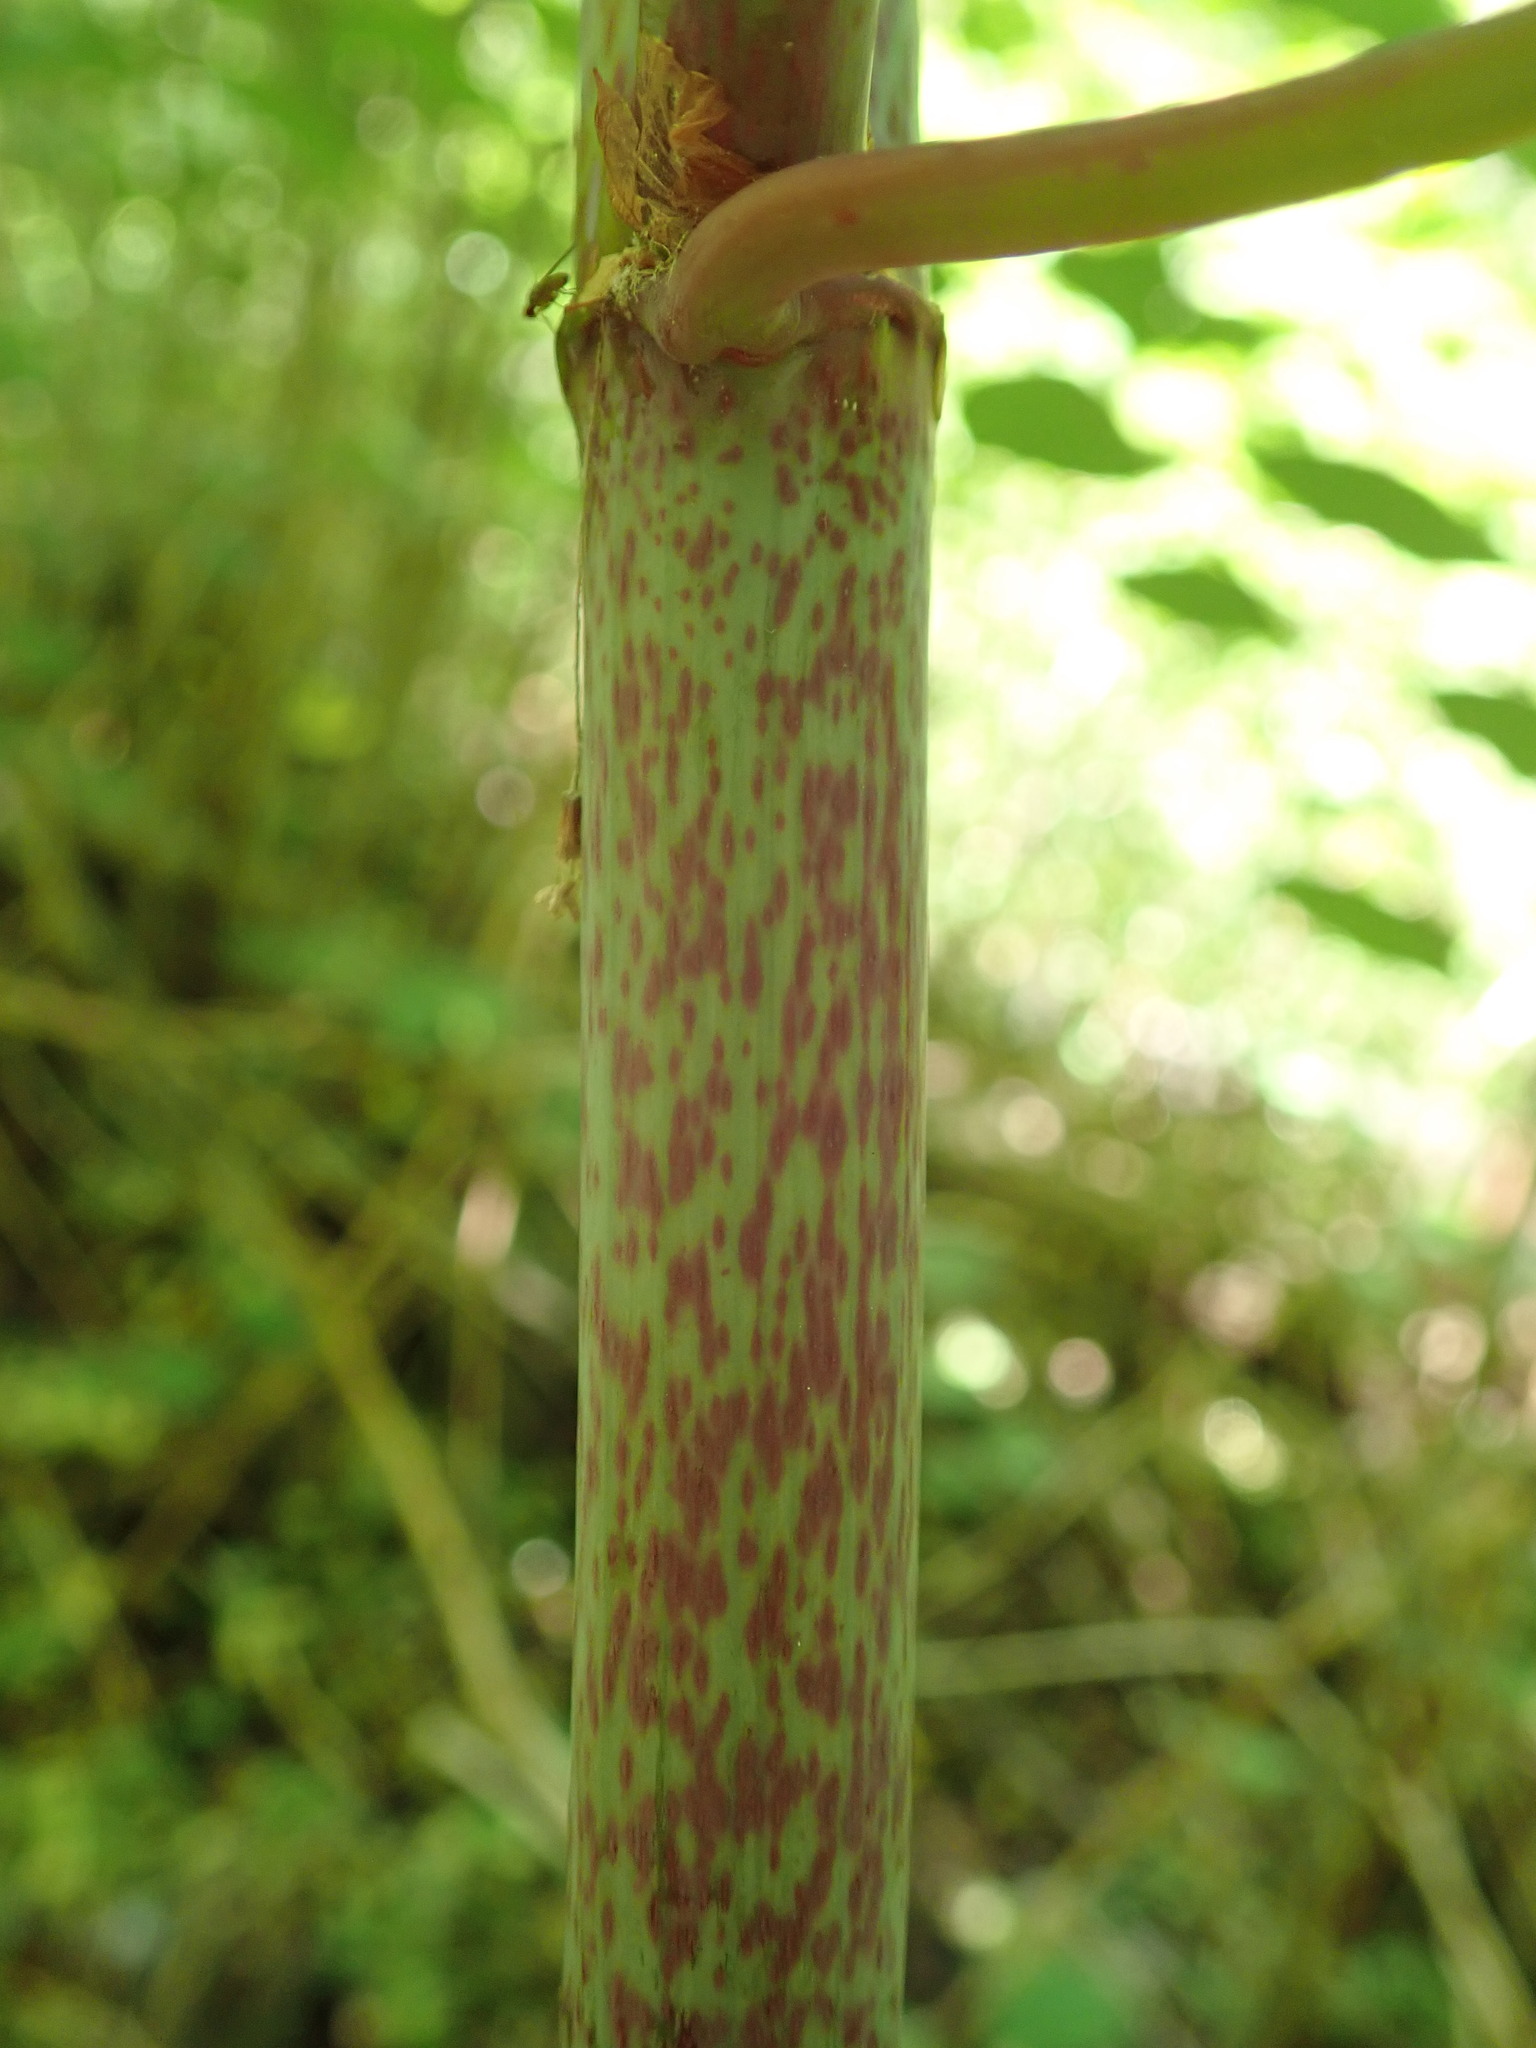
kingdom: Plantae
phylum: Tracheophyta
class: Magnoliopsida
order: Caryophyllales
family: Polygonaceae
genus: Reynoutria
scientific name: Reynoutria japonica
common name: Japanese knotweed
